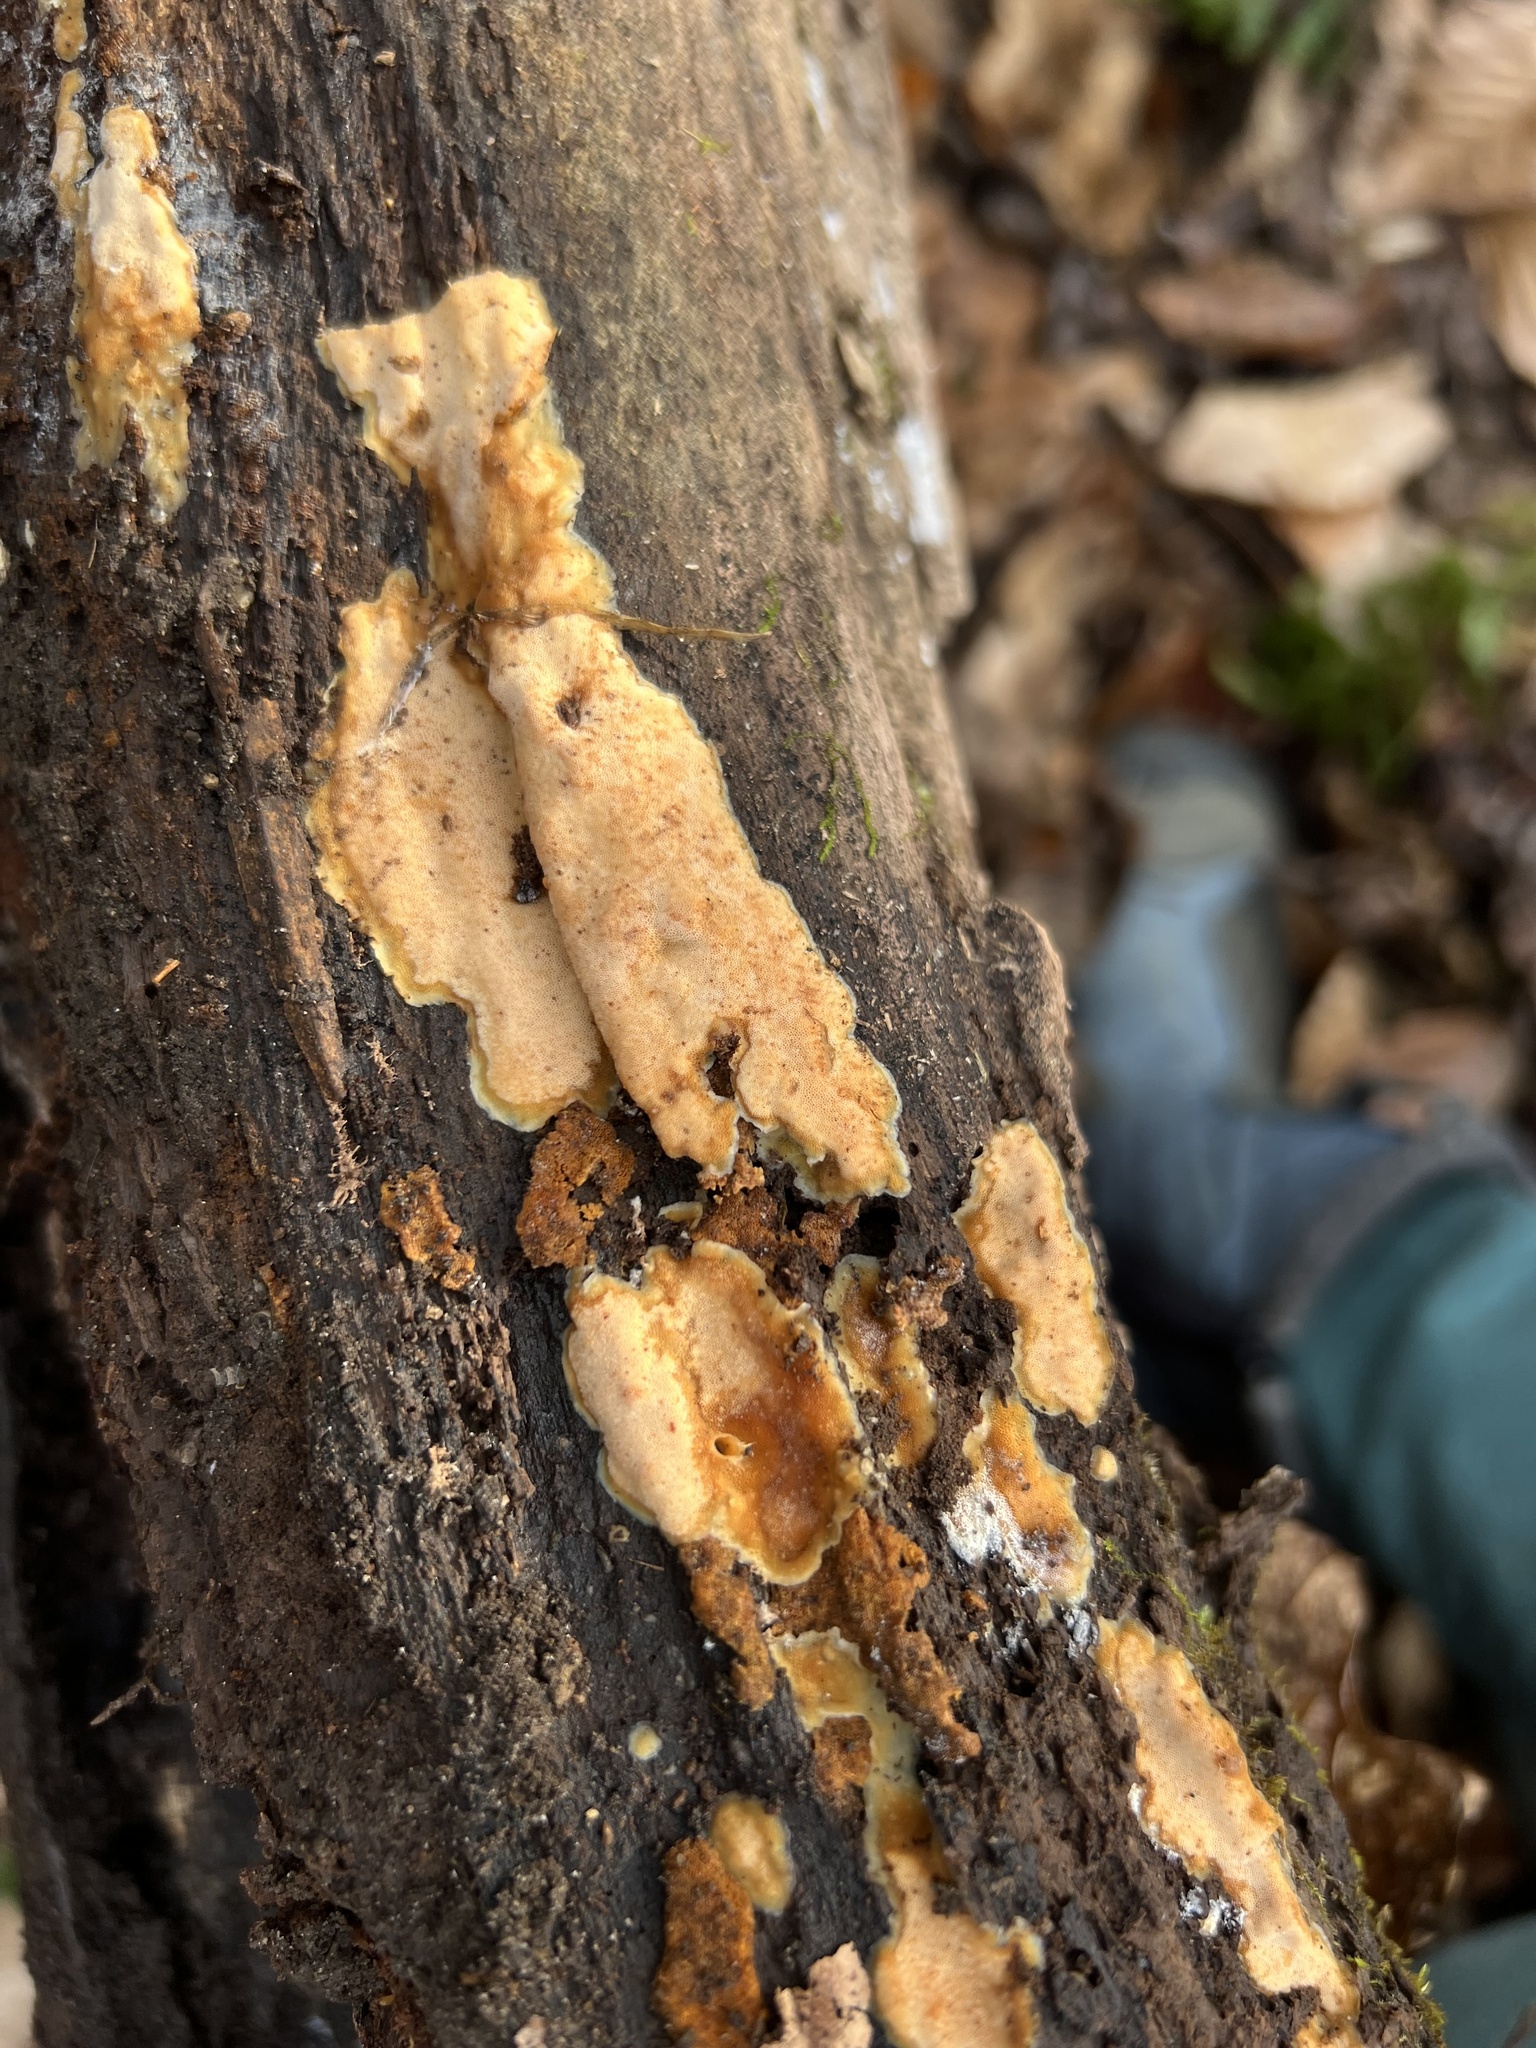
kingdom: Fungi
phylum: Basidiomycota
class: Agaricomycetes
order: Polyporales
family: Meripilaceae
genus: Rigidoporus
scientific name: Rigidoporus crocatus
